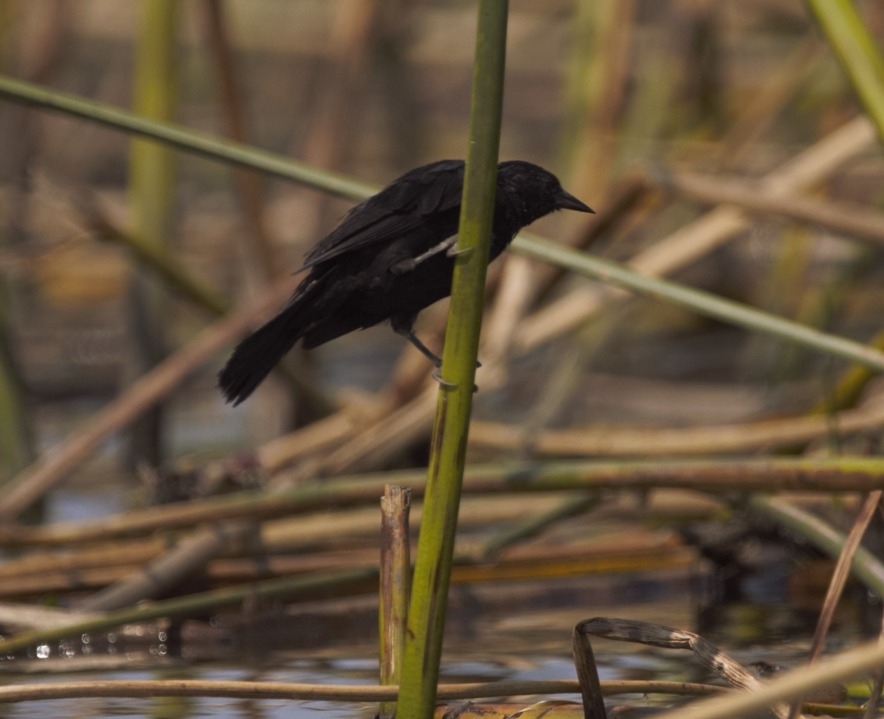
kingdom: Animalia
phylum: Chordata
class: Aves
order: Passeriformes
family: Icteridae
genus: Agelasticus
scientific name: Agelasticus cyanopus
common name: Unicolored blackbird
